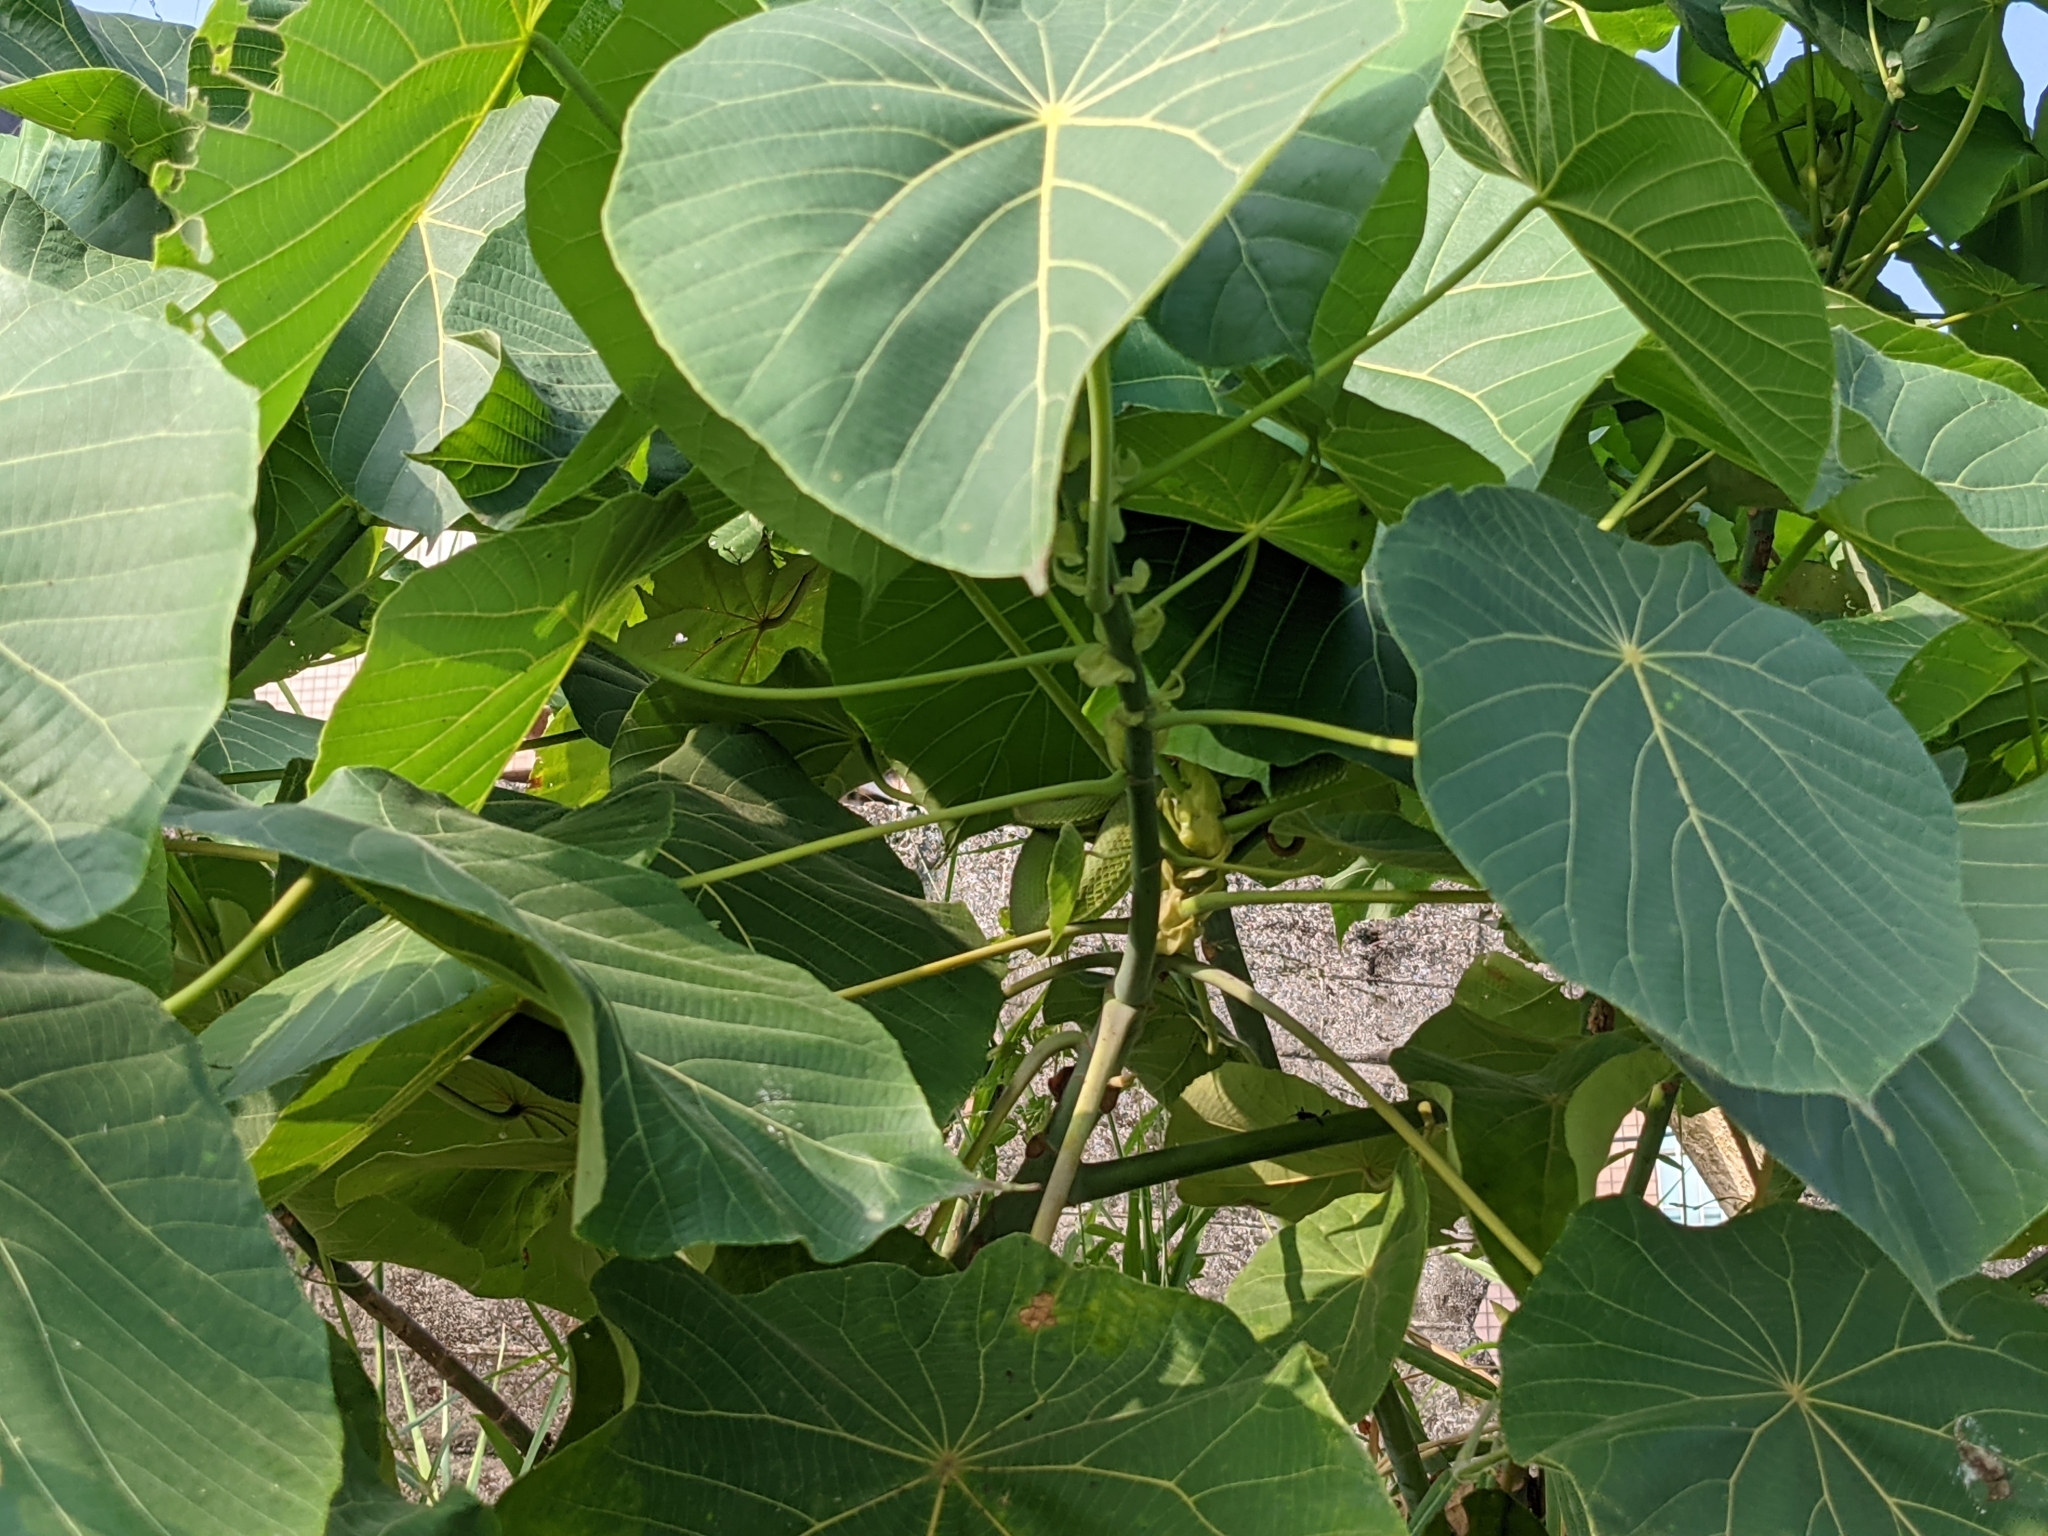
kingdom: Plantae
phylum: Tracheophyta
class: Magnoliopsida
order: Malpighiales
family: Euphorbiaceae
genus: Macaranga
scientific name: Macaranga tanarius
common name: Parasol leaf tree
